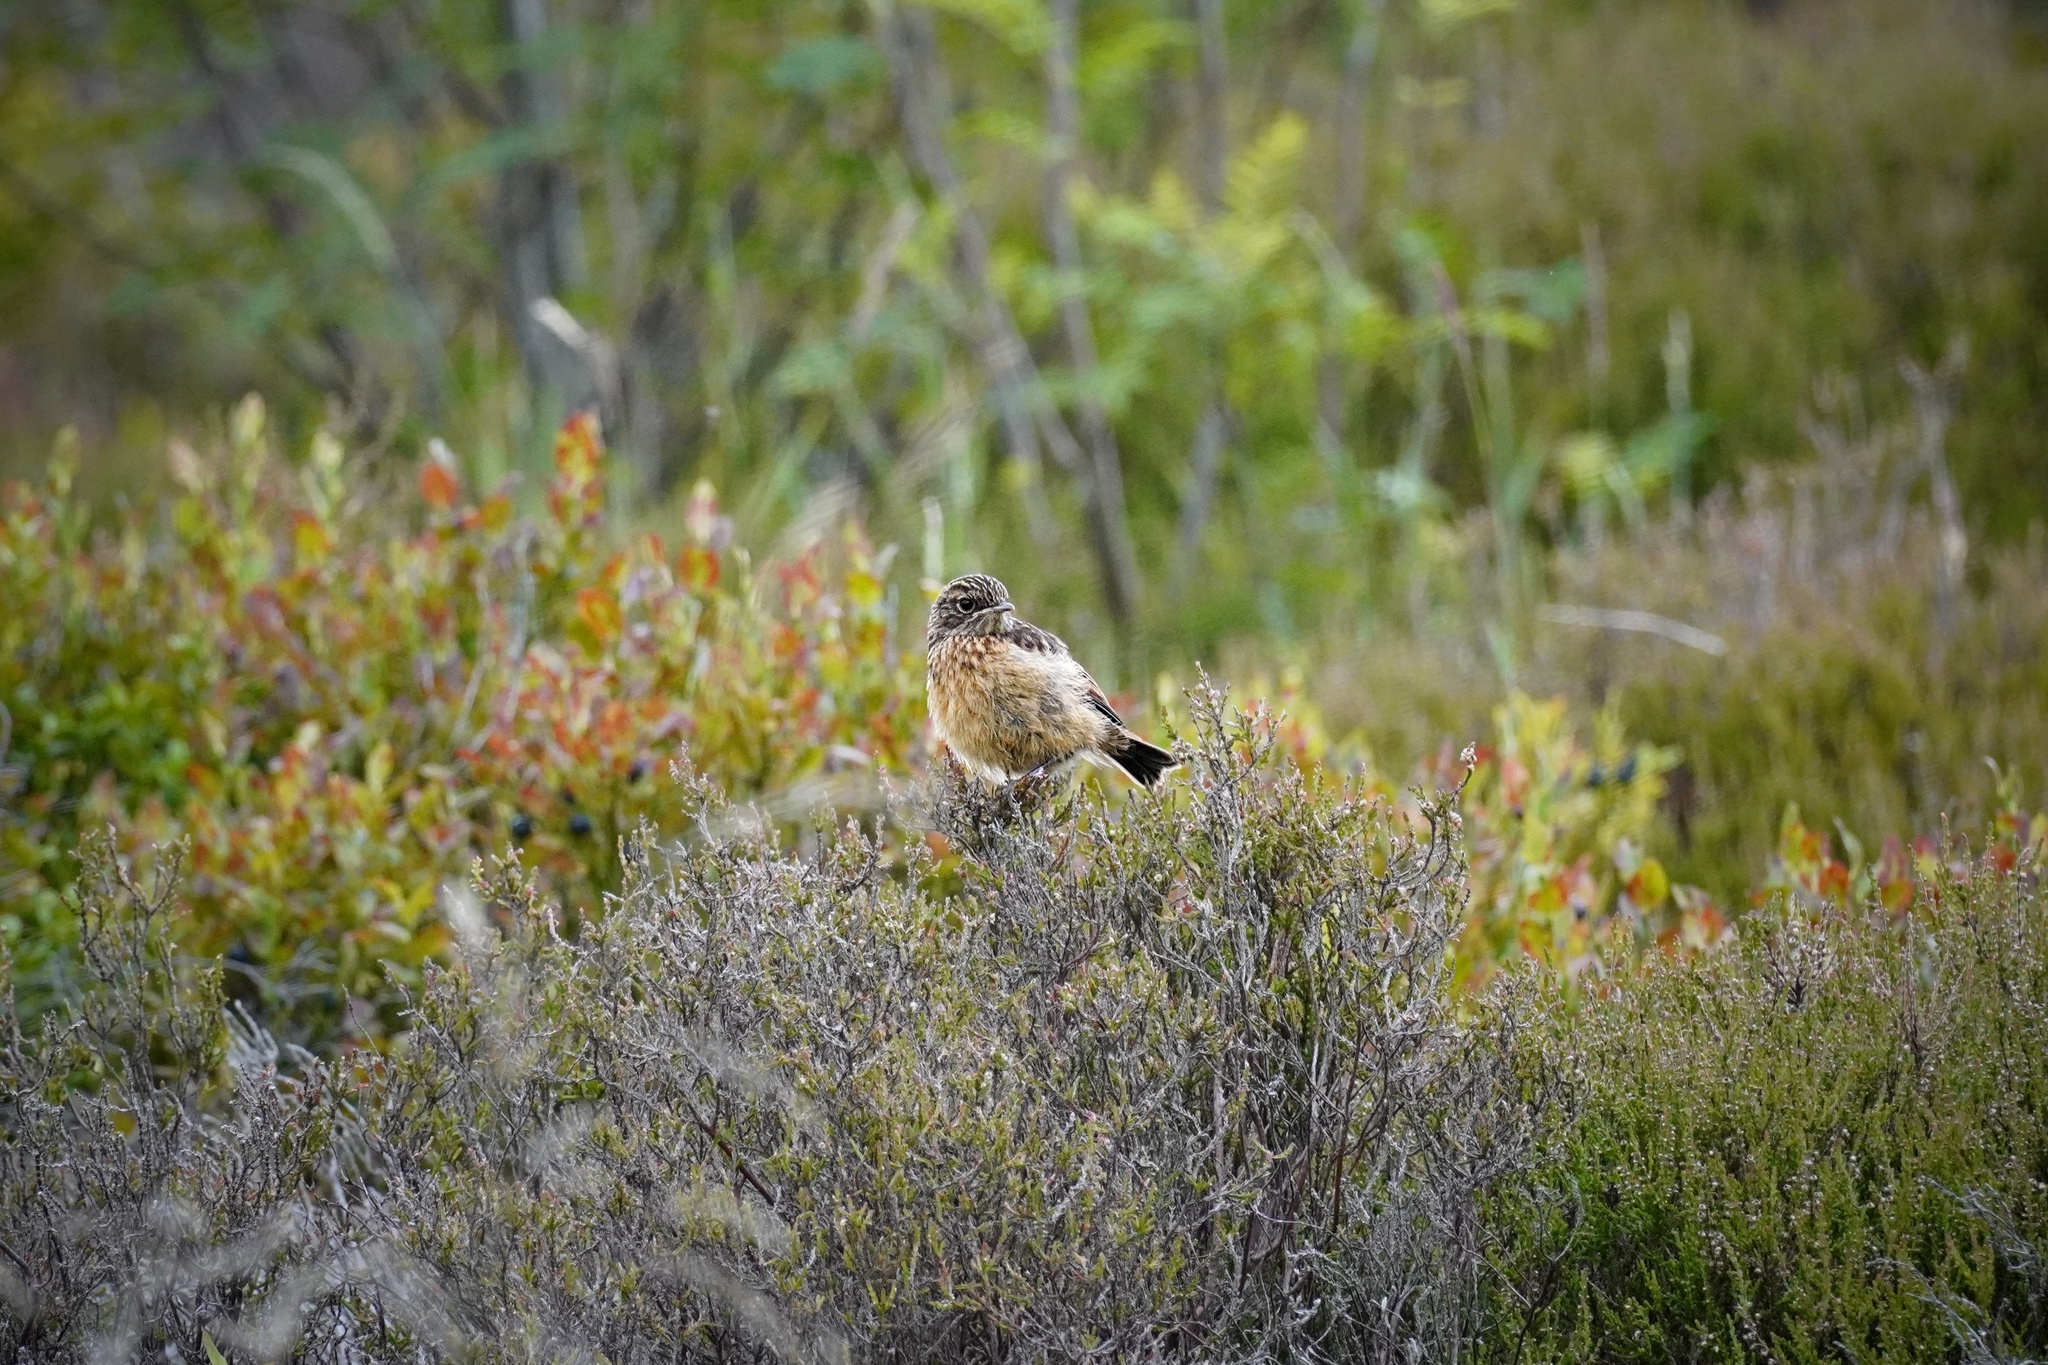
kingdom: Animalia
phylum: Chordata
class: Aves
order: Passeriformes
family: Muscicapidae
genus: Saxicola
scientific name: Saxicola rubicola
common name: European stonechat
